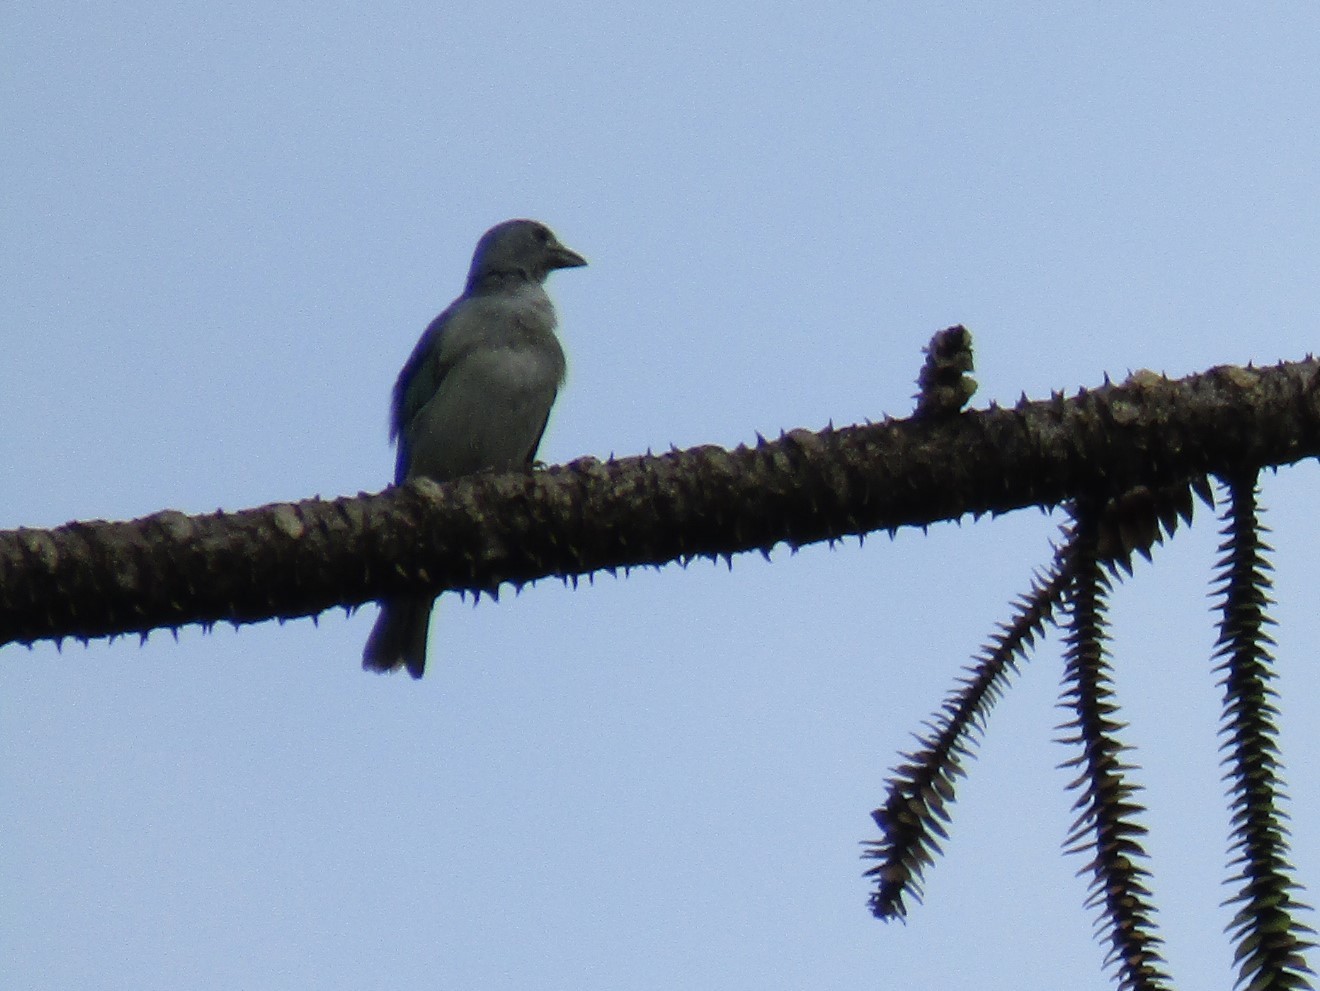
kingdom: Animalia
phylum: Chordata
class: Aves
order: Passeriformes
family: Thraupidae
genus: Thraupis
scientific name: Thraupis sayaca
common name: Sayaca tanager
